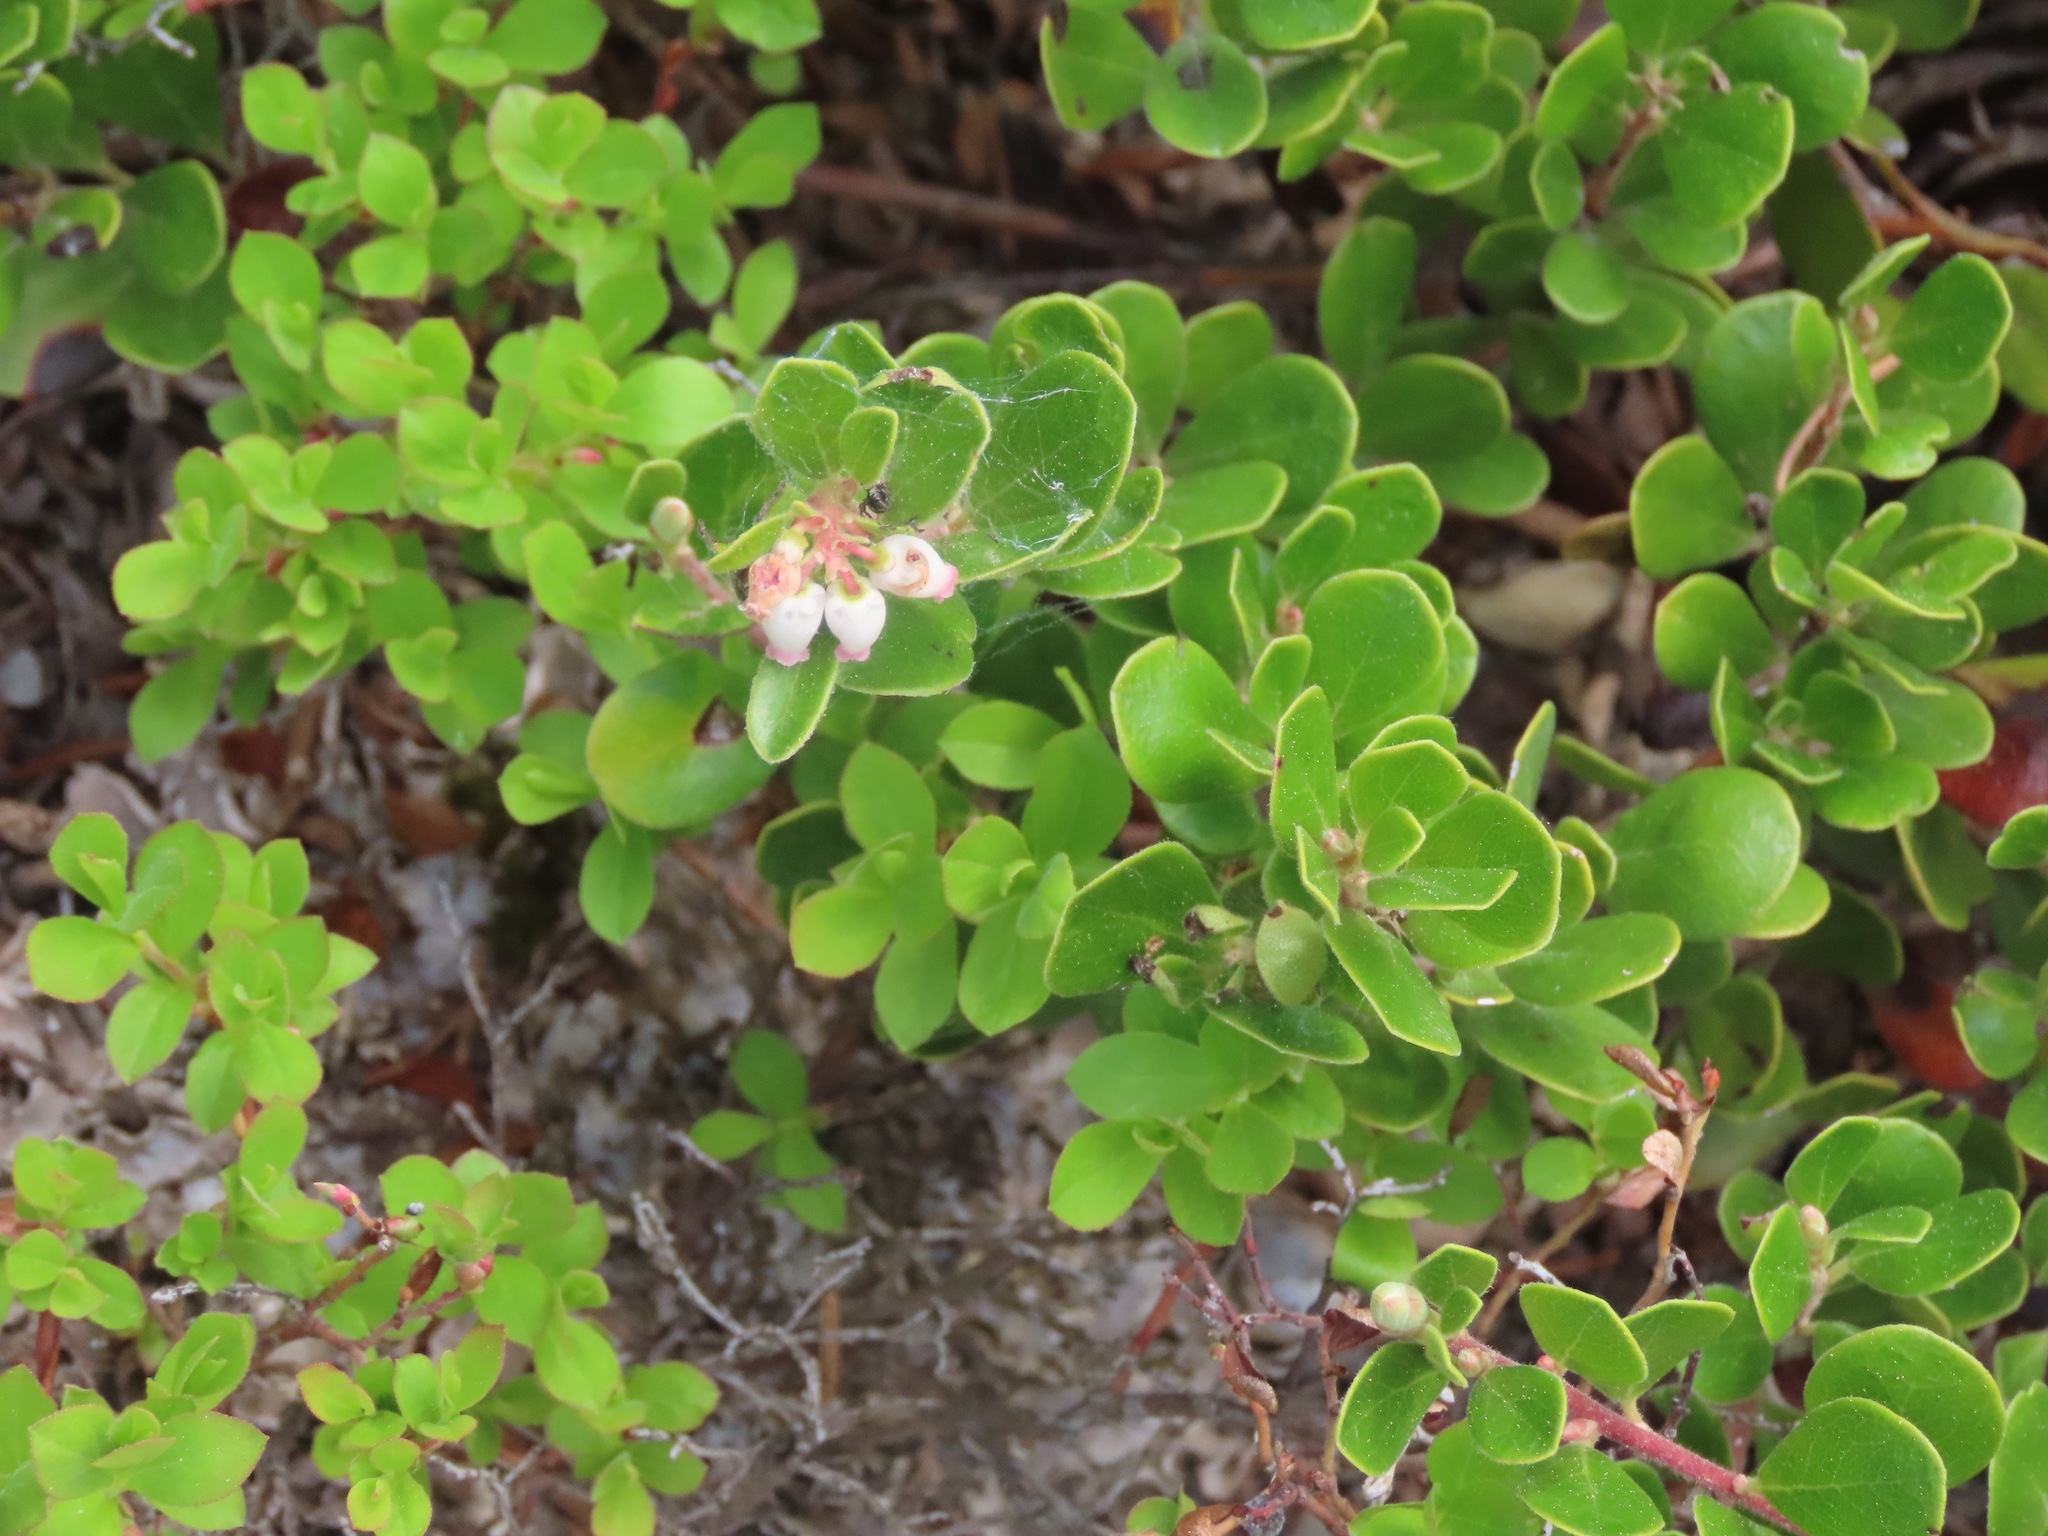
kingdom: Plantae
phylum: Tracheophyta
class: Magnoliopsida
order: Ericales
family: Ericaceae
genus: Arctostaphylos
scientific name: Arctostaphylos uva-ursi
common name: Bearberry
